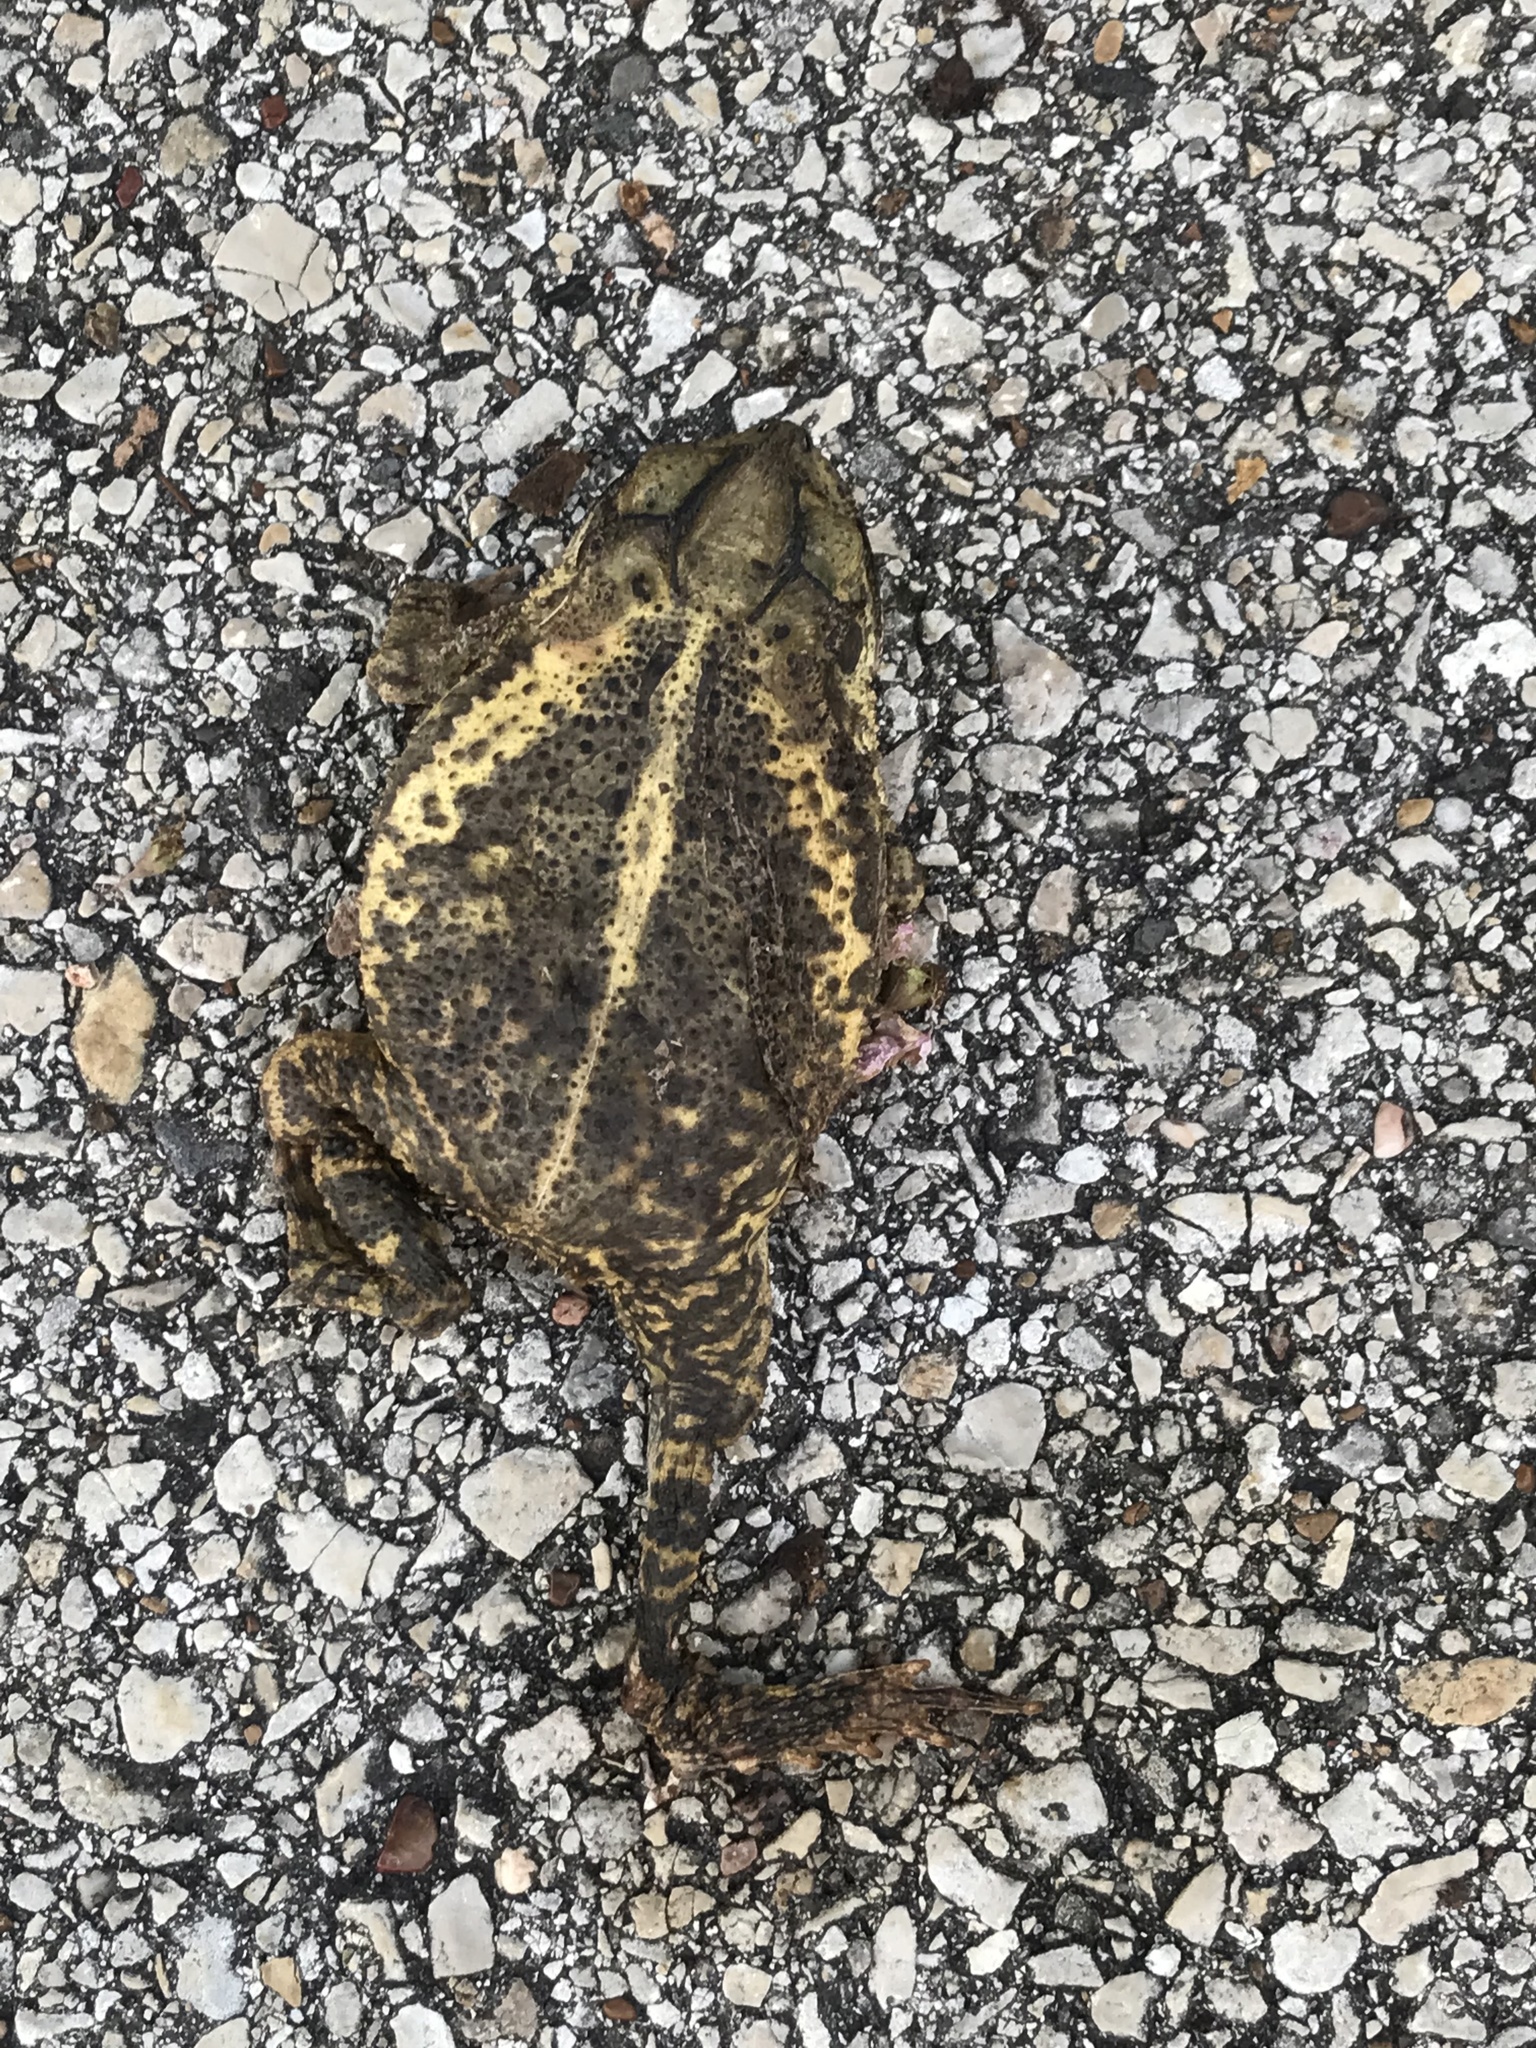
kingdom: Animalia
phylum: Chordata
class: Amphibia
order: Anura
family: Bufonidae
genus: Incilius
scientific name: Incilius nebulifer
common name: Gulf coast toad
